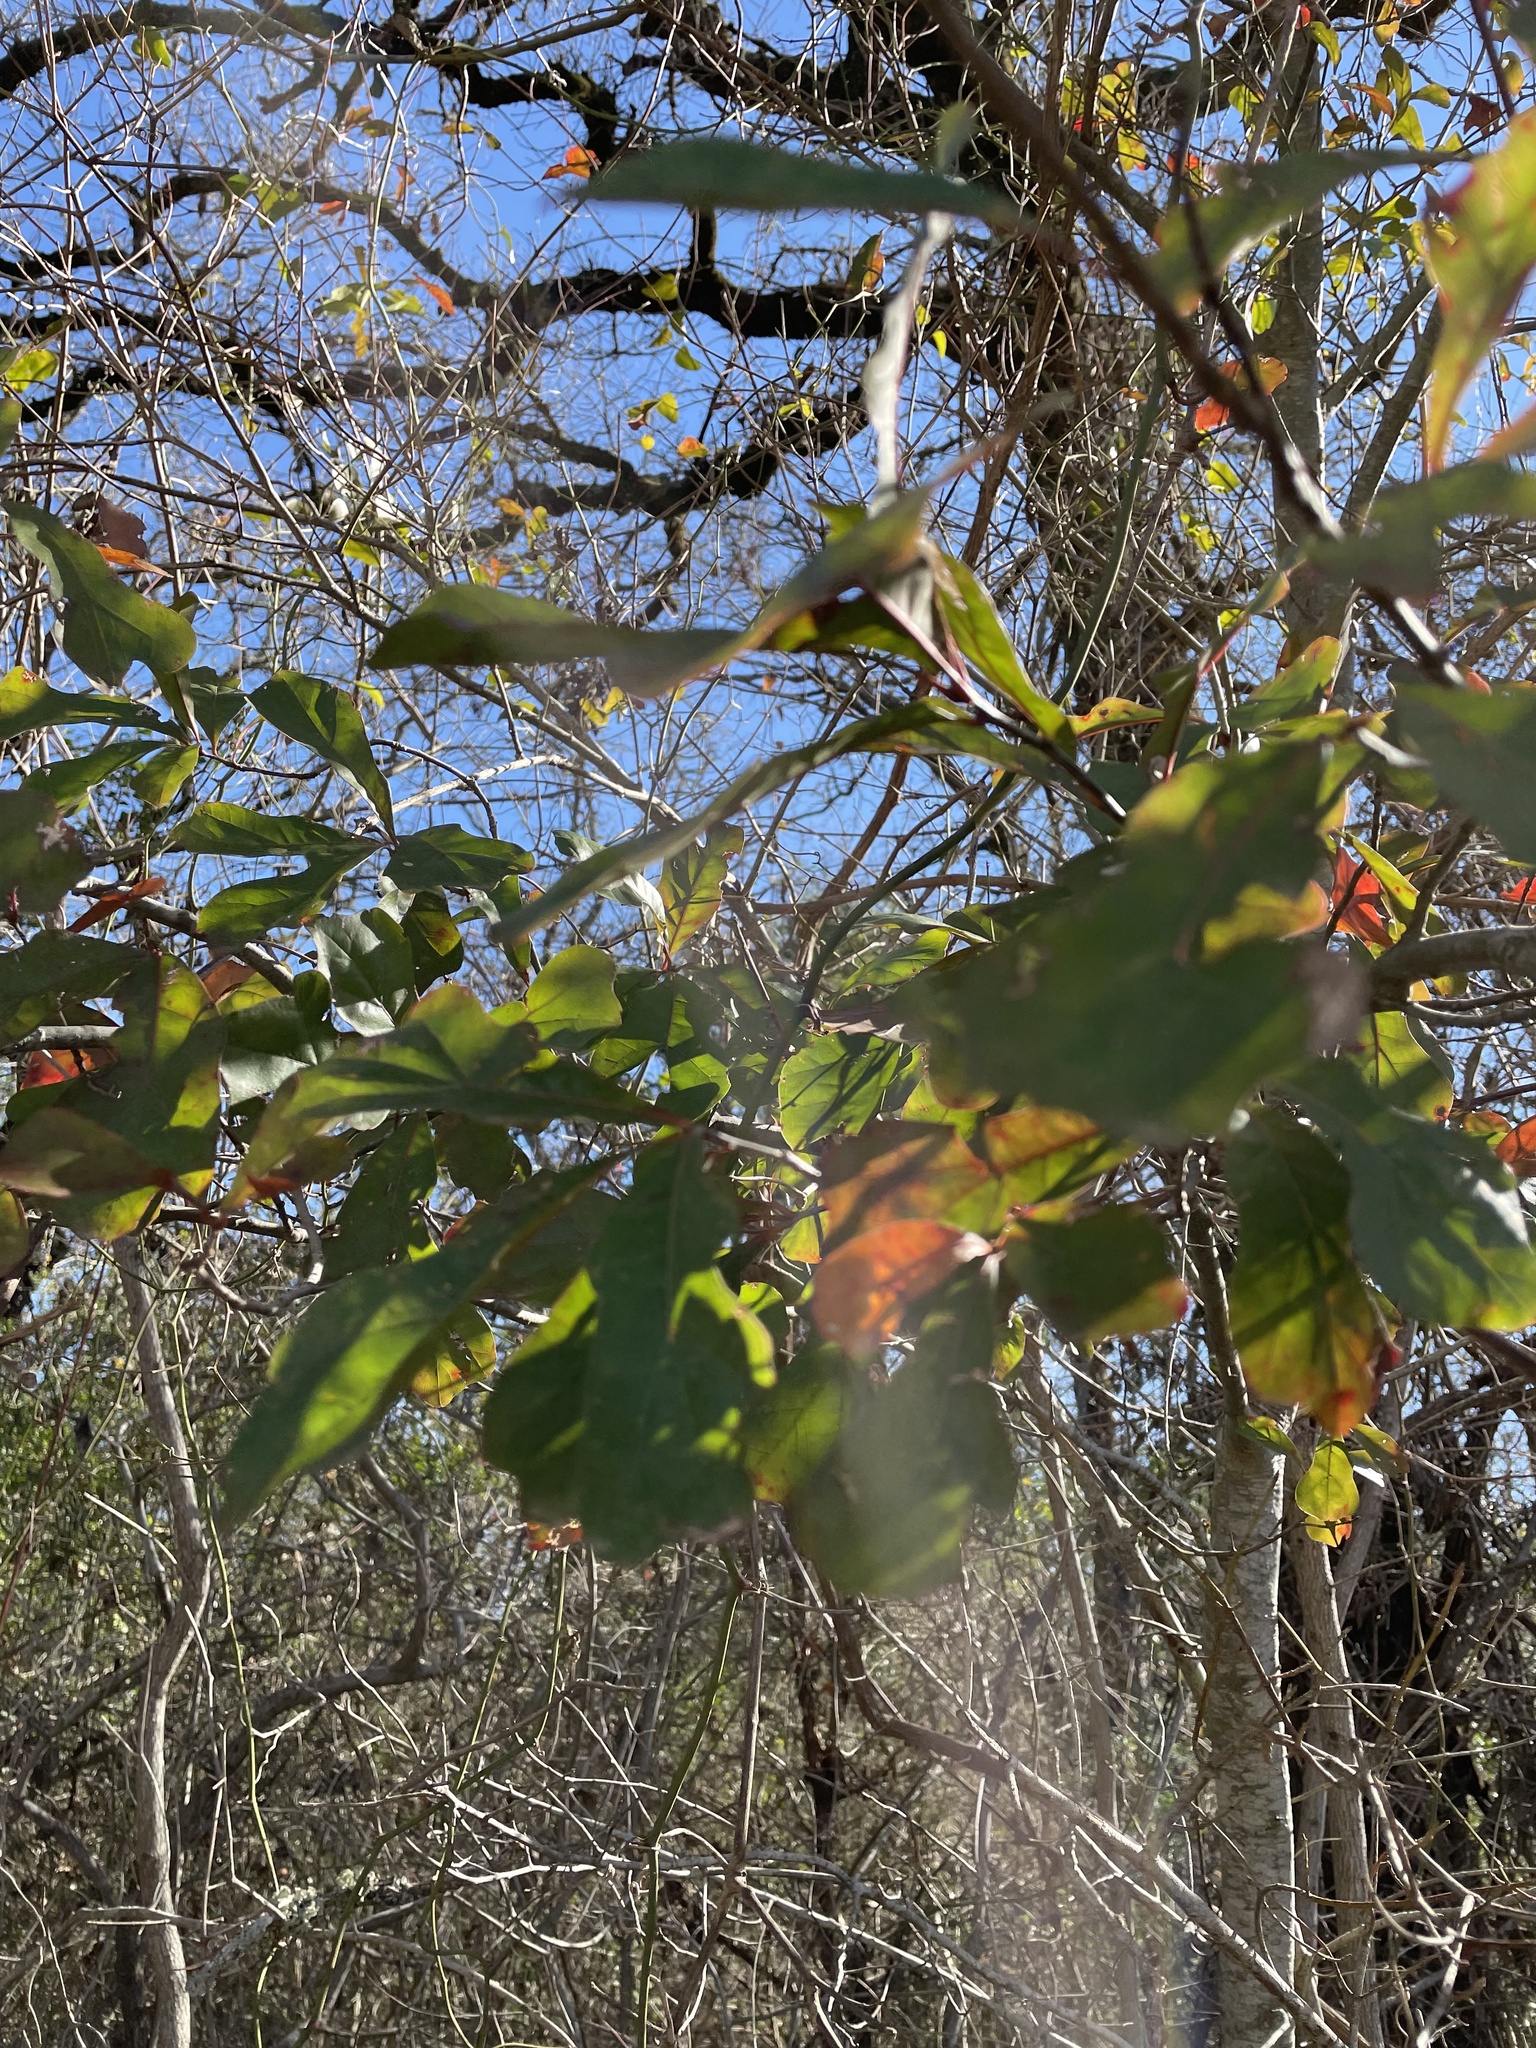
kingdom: Plantae
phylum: Tracheophyta
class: Magnoliopsida
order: Fagales
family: Fagaceae
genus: Quercus
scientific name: Quercus nigra
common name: Water oak
